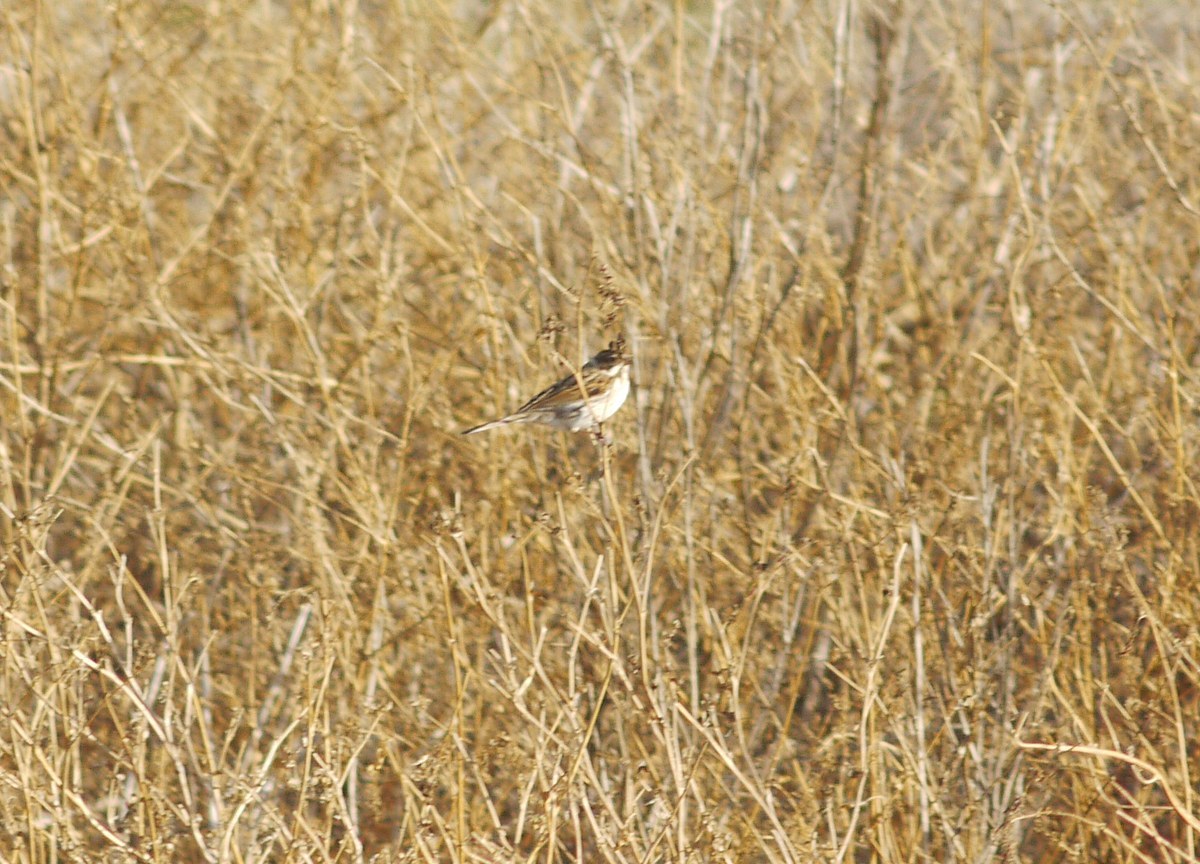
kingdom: Animalia
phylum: Chordata
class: Aves
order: Passeriformes
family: Emberizidae
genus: Emberiza
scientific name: Emberiza schoeniclus
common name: Reed bunting
